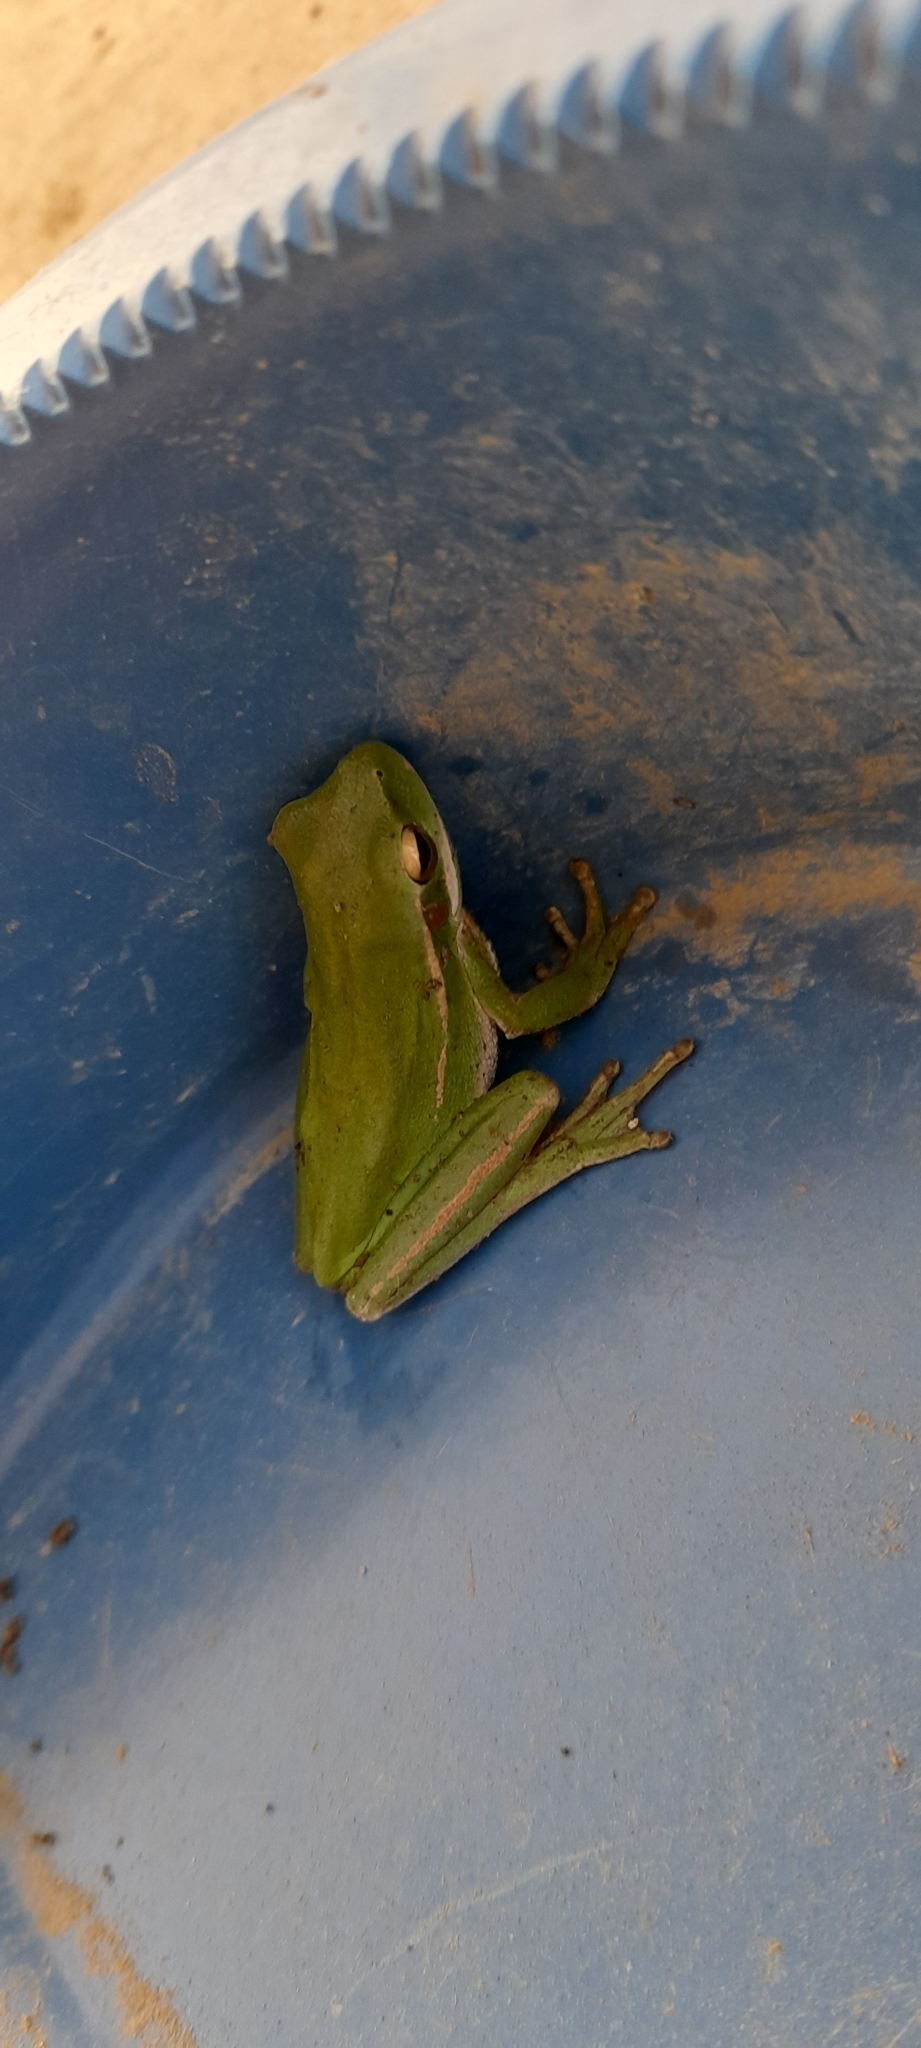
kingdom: Animalia
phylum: Chordata
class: Amphibia
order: Anura
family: Hylidae
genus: Boana
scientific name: Boana pulchella
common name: Montevideo treefrog
